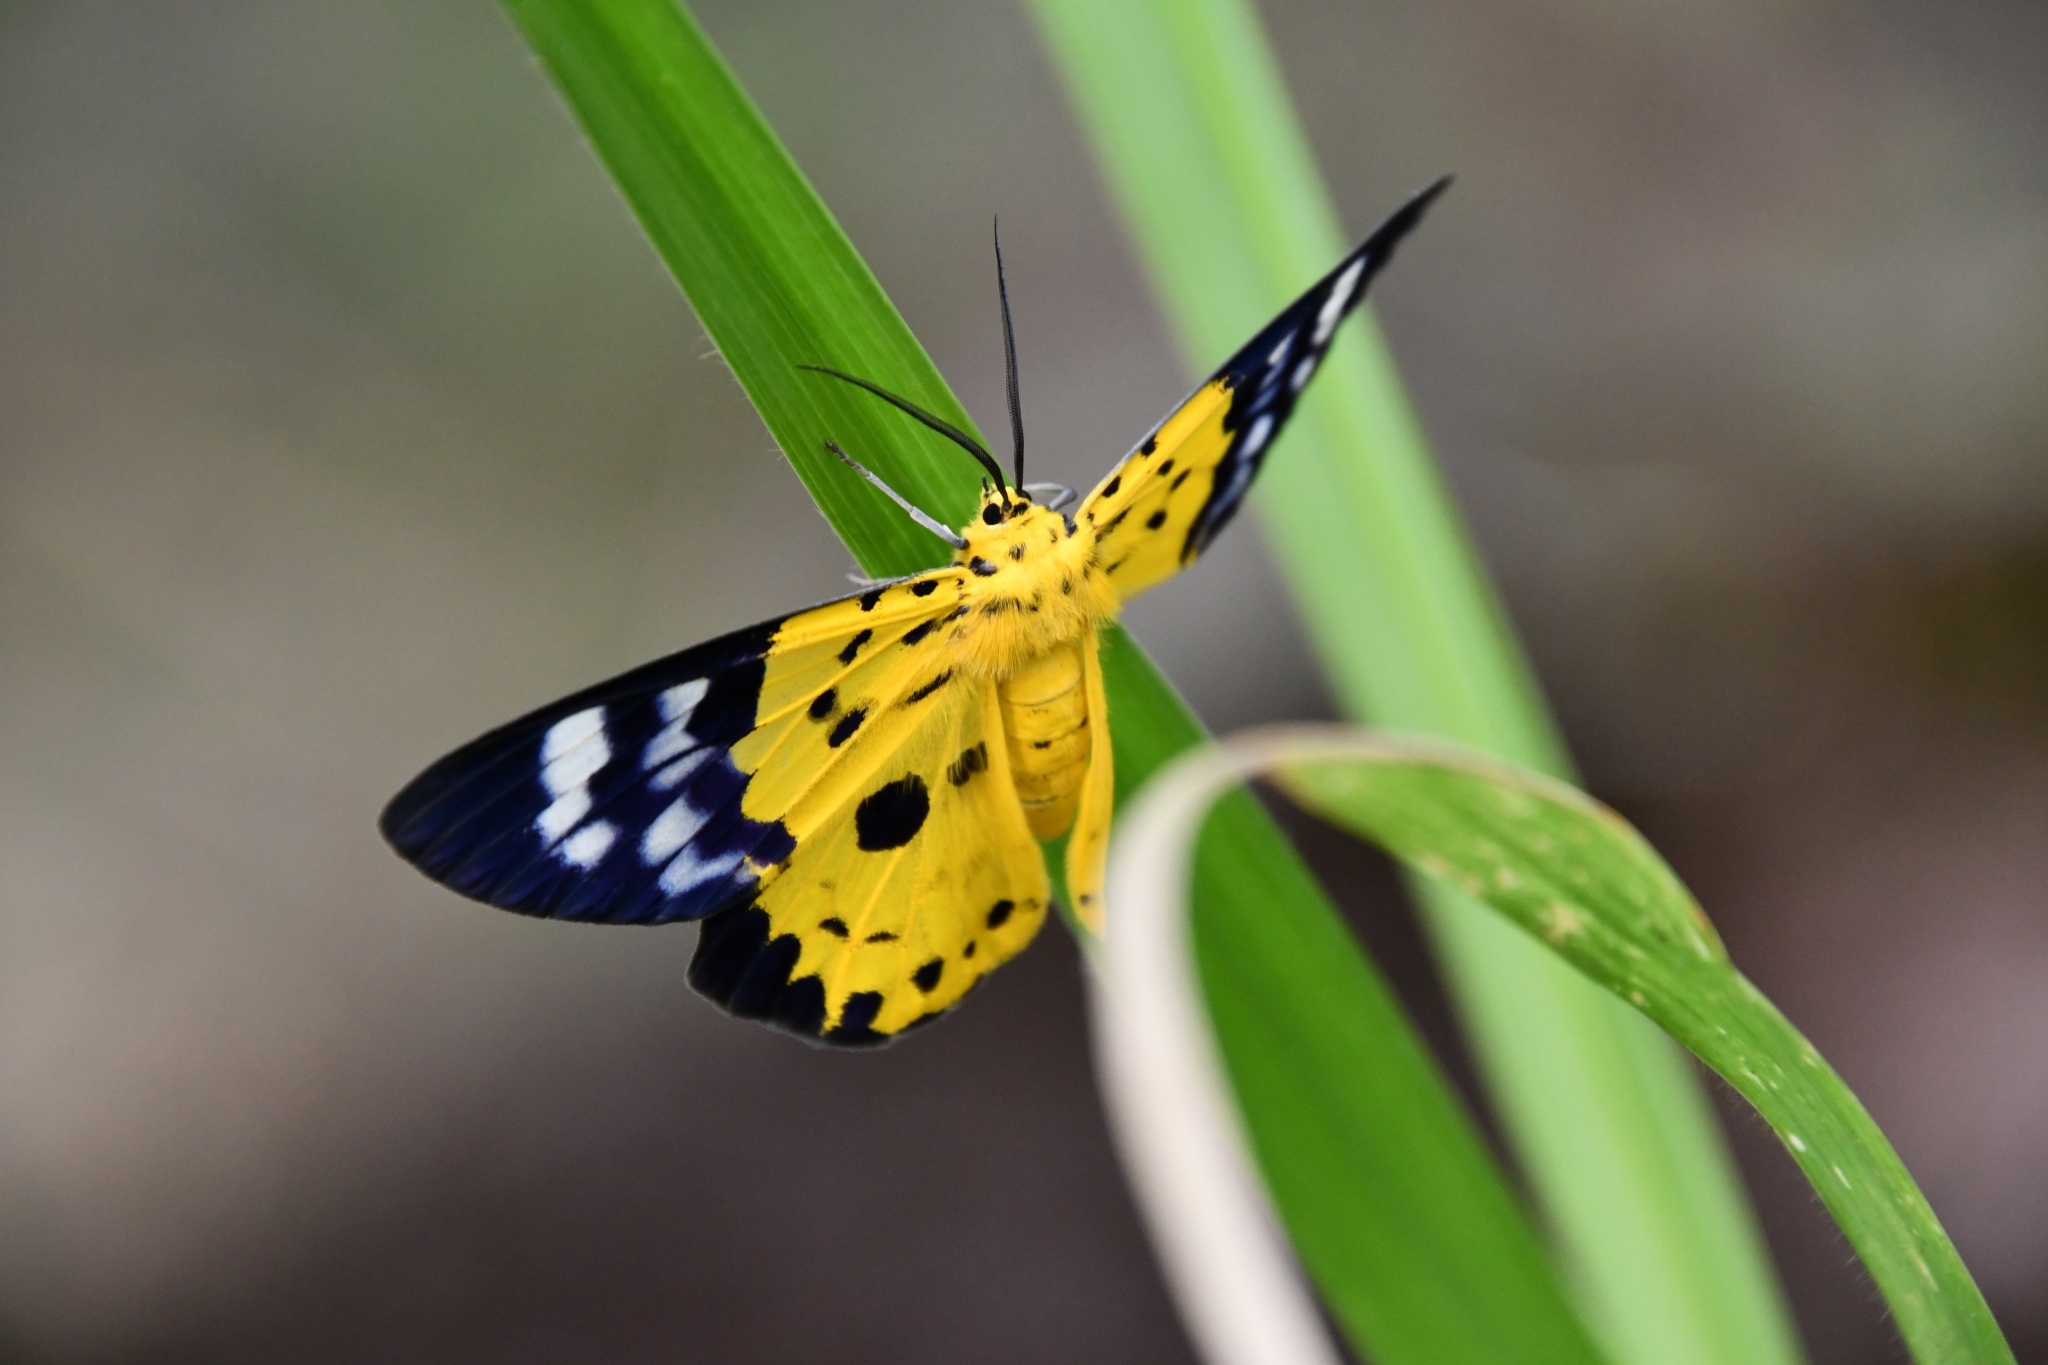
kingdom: Animalia
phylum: Arthropoda
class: Insecta
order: Lepidoptera
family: Geometridae
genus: Dysphania
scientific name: Dysphania militaris
